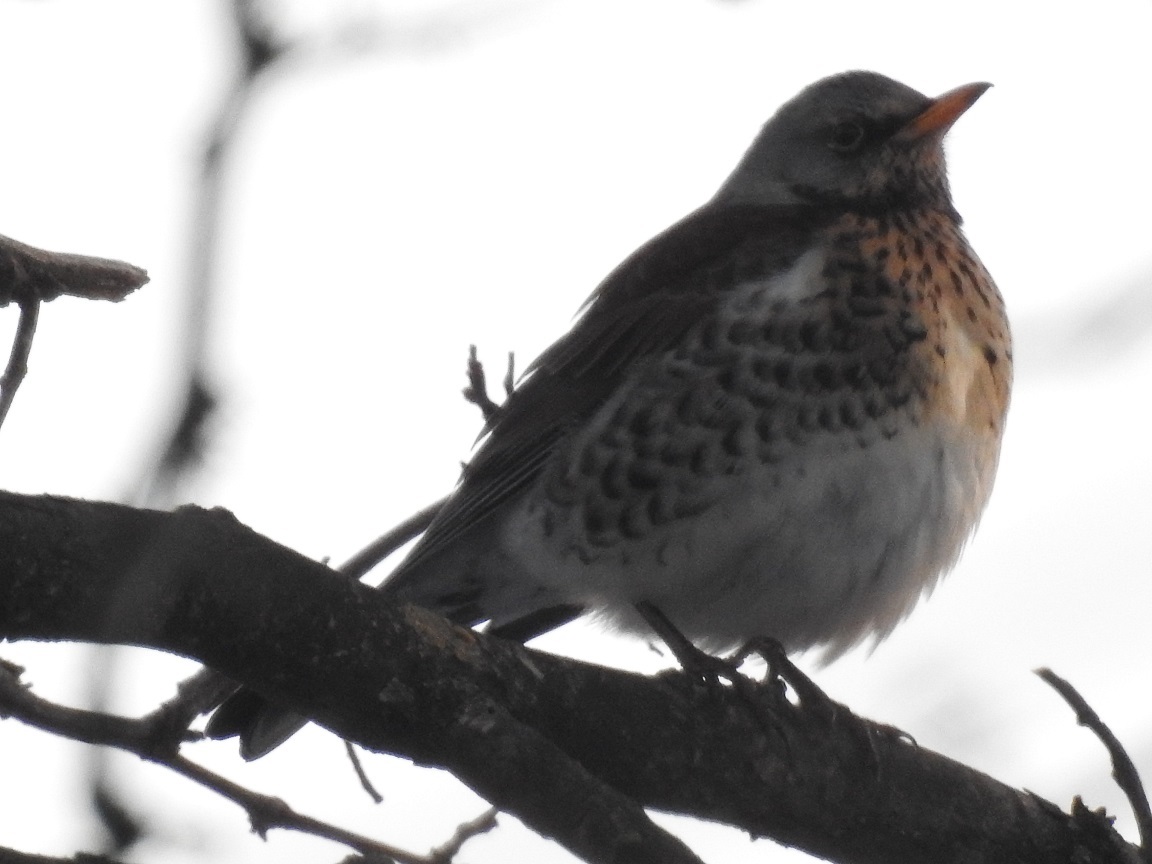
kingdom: Animalia
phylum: Chordata
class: Aves
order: Passeriformes
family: Turdidae
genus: Turdus
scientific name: Turdus pilaris
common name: Fieldfare
